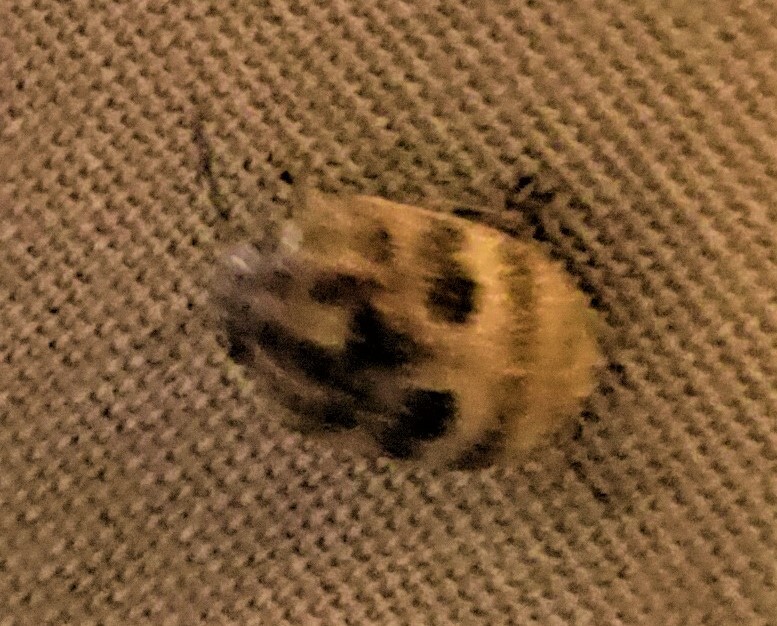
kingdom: Animalia
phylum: Arthropoda
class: Insecta
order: Hemiptera
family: Scutelleridae
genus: Orsilochides
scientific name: Orsilochides
